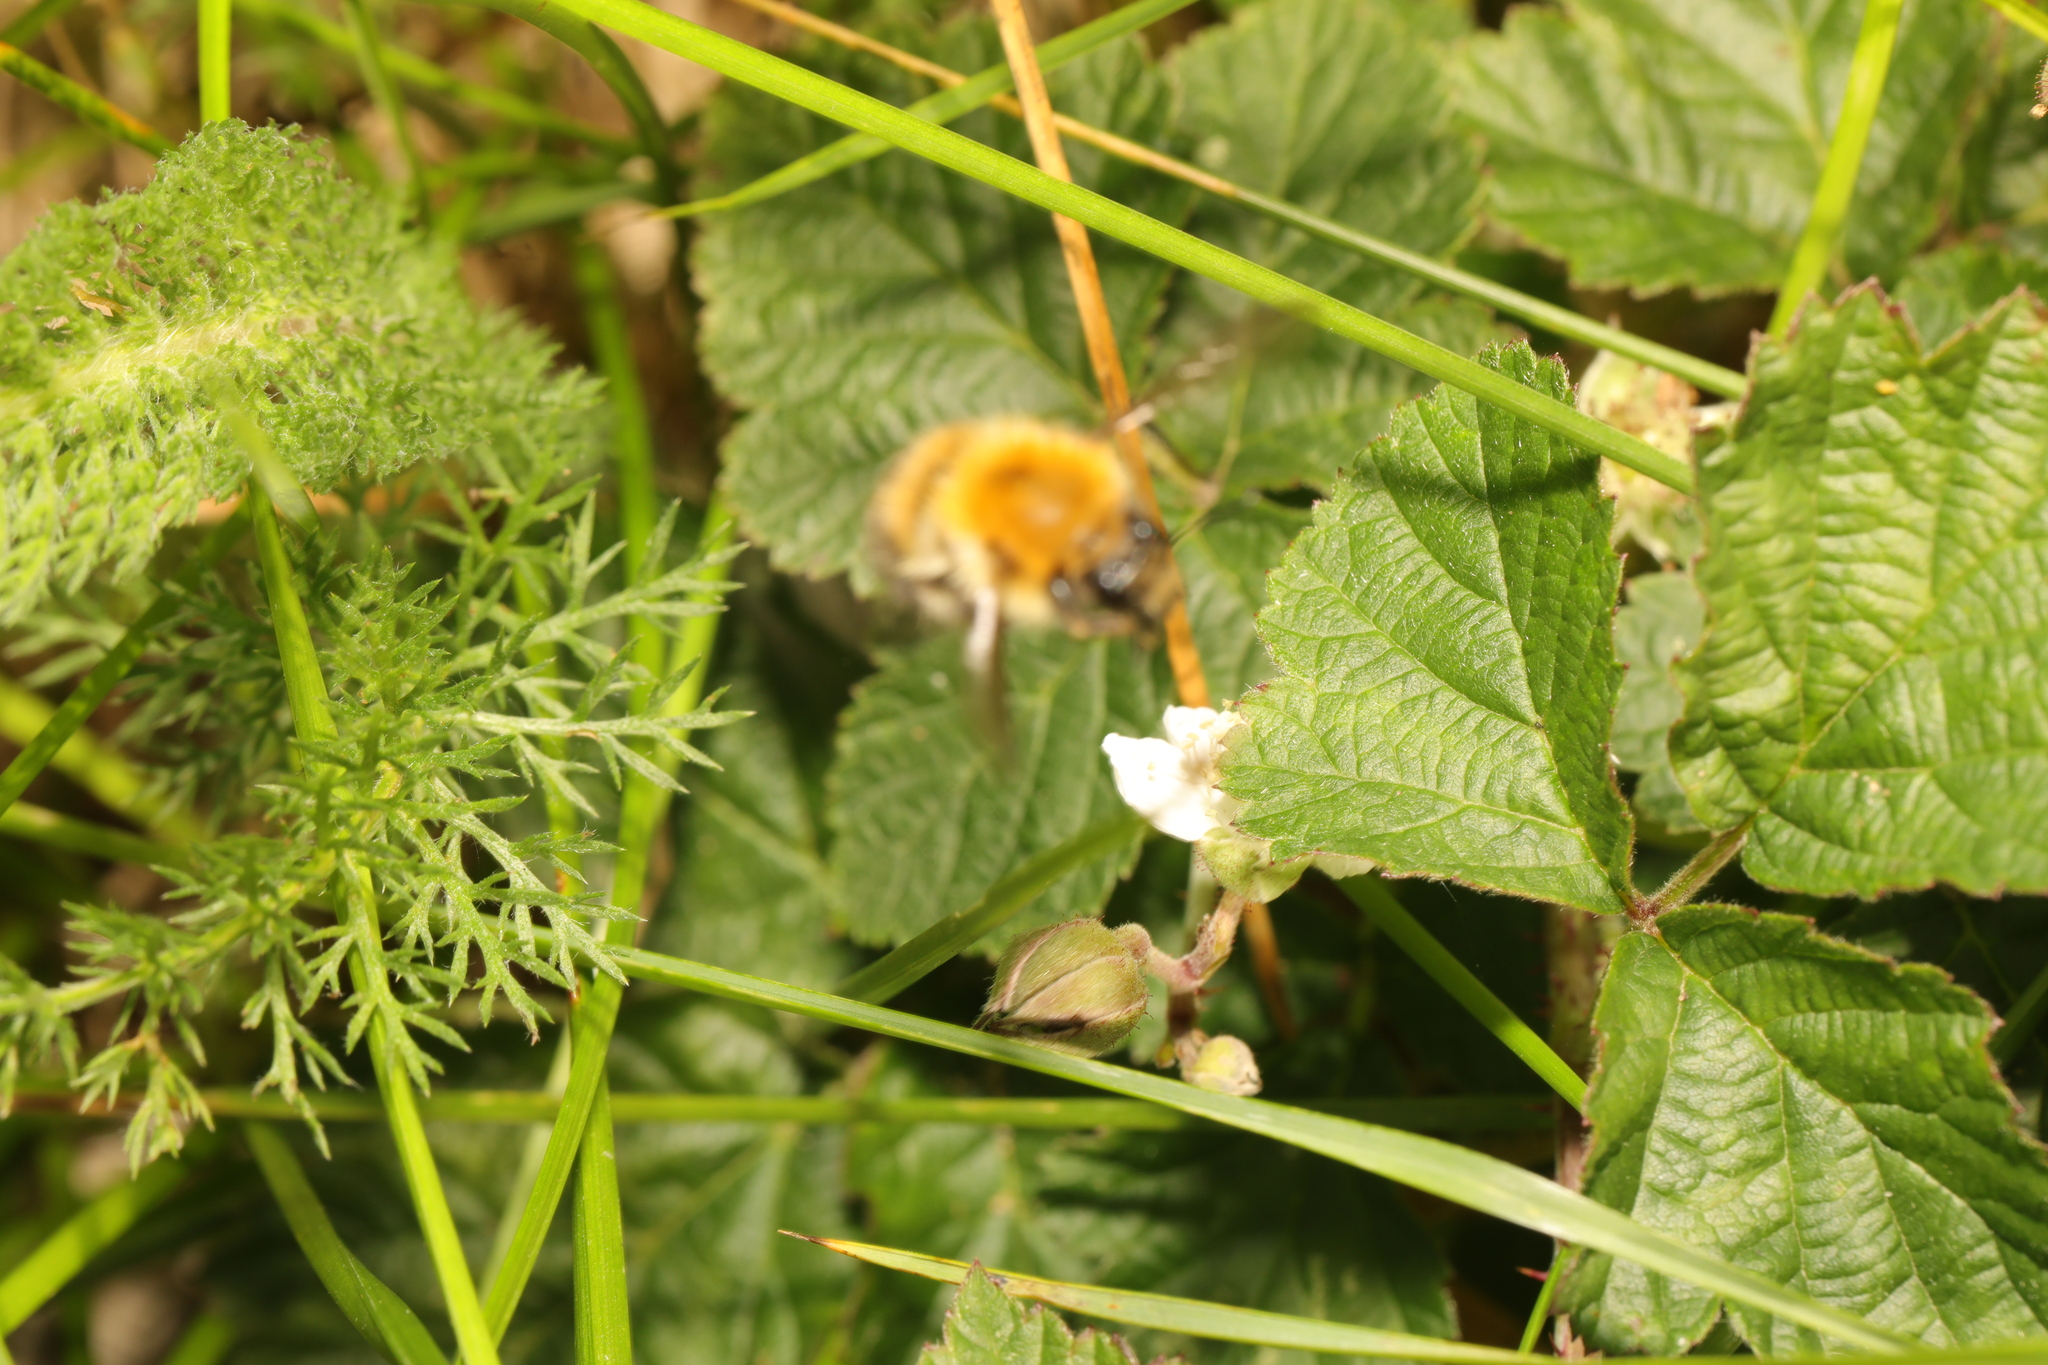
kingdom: Animalia
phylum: Arthropoda
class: Insecta
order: Hymenoptera
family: Apidae
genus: Bombus
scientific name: Bombus pascuorum
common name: Common carder bee
